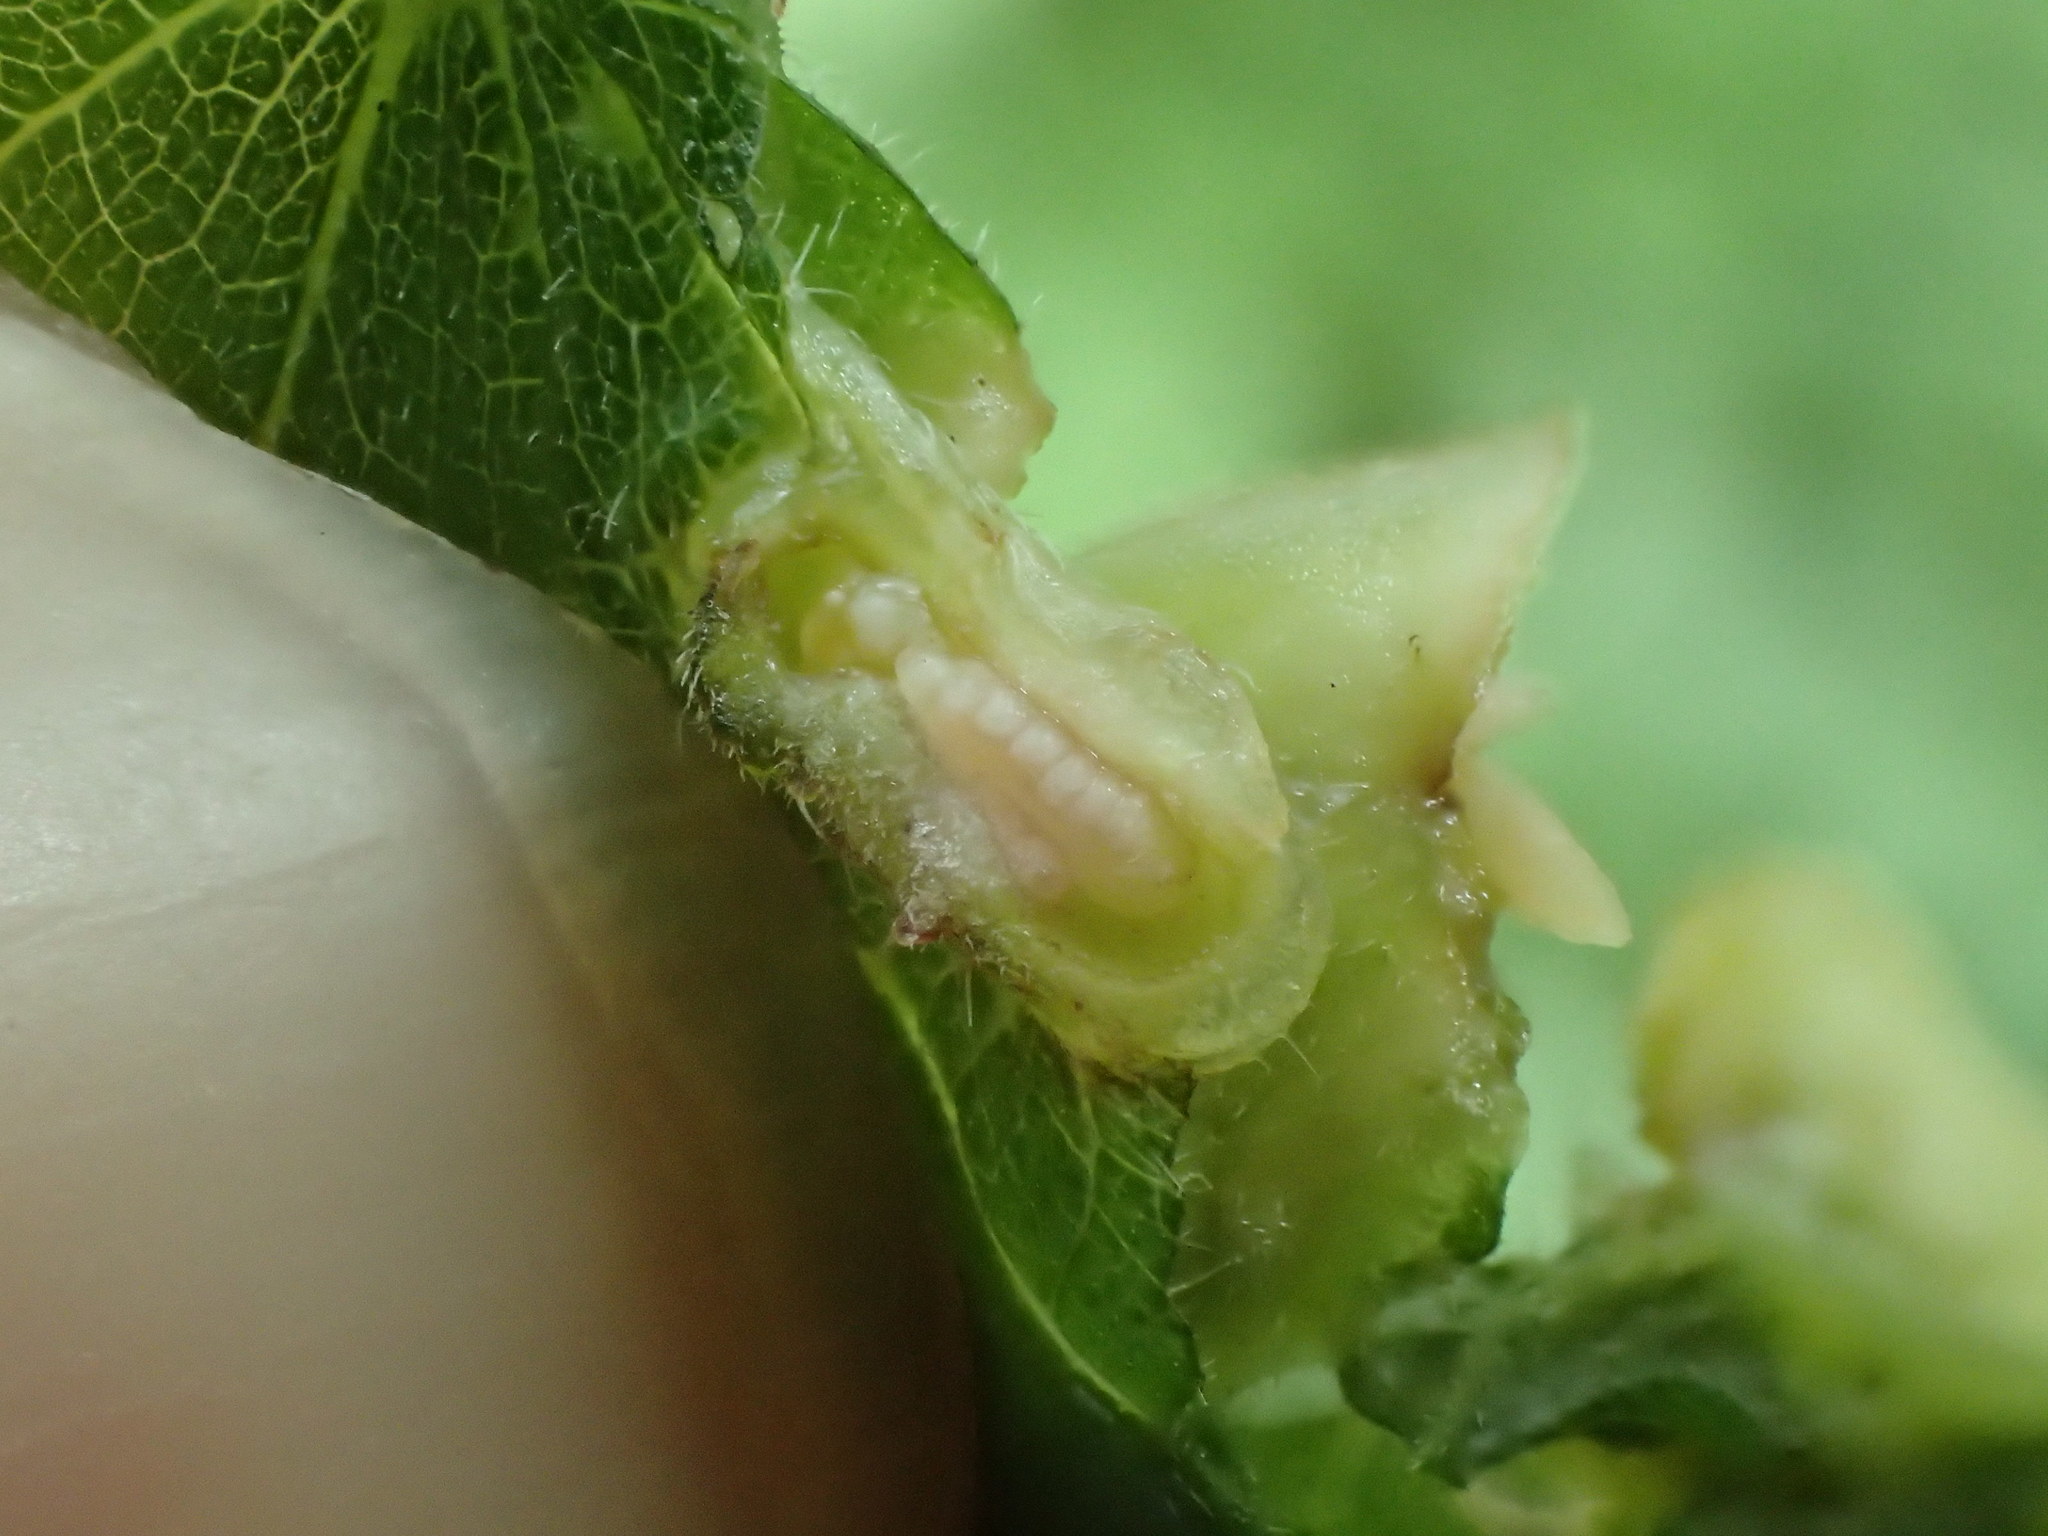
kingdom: Animalia
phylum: Arthropoda
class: Insecta
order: Diptera
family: Cecidomyiidae
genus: Dasineura
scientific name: Dasineura urticae
